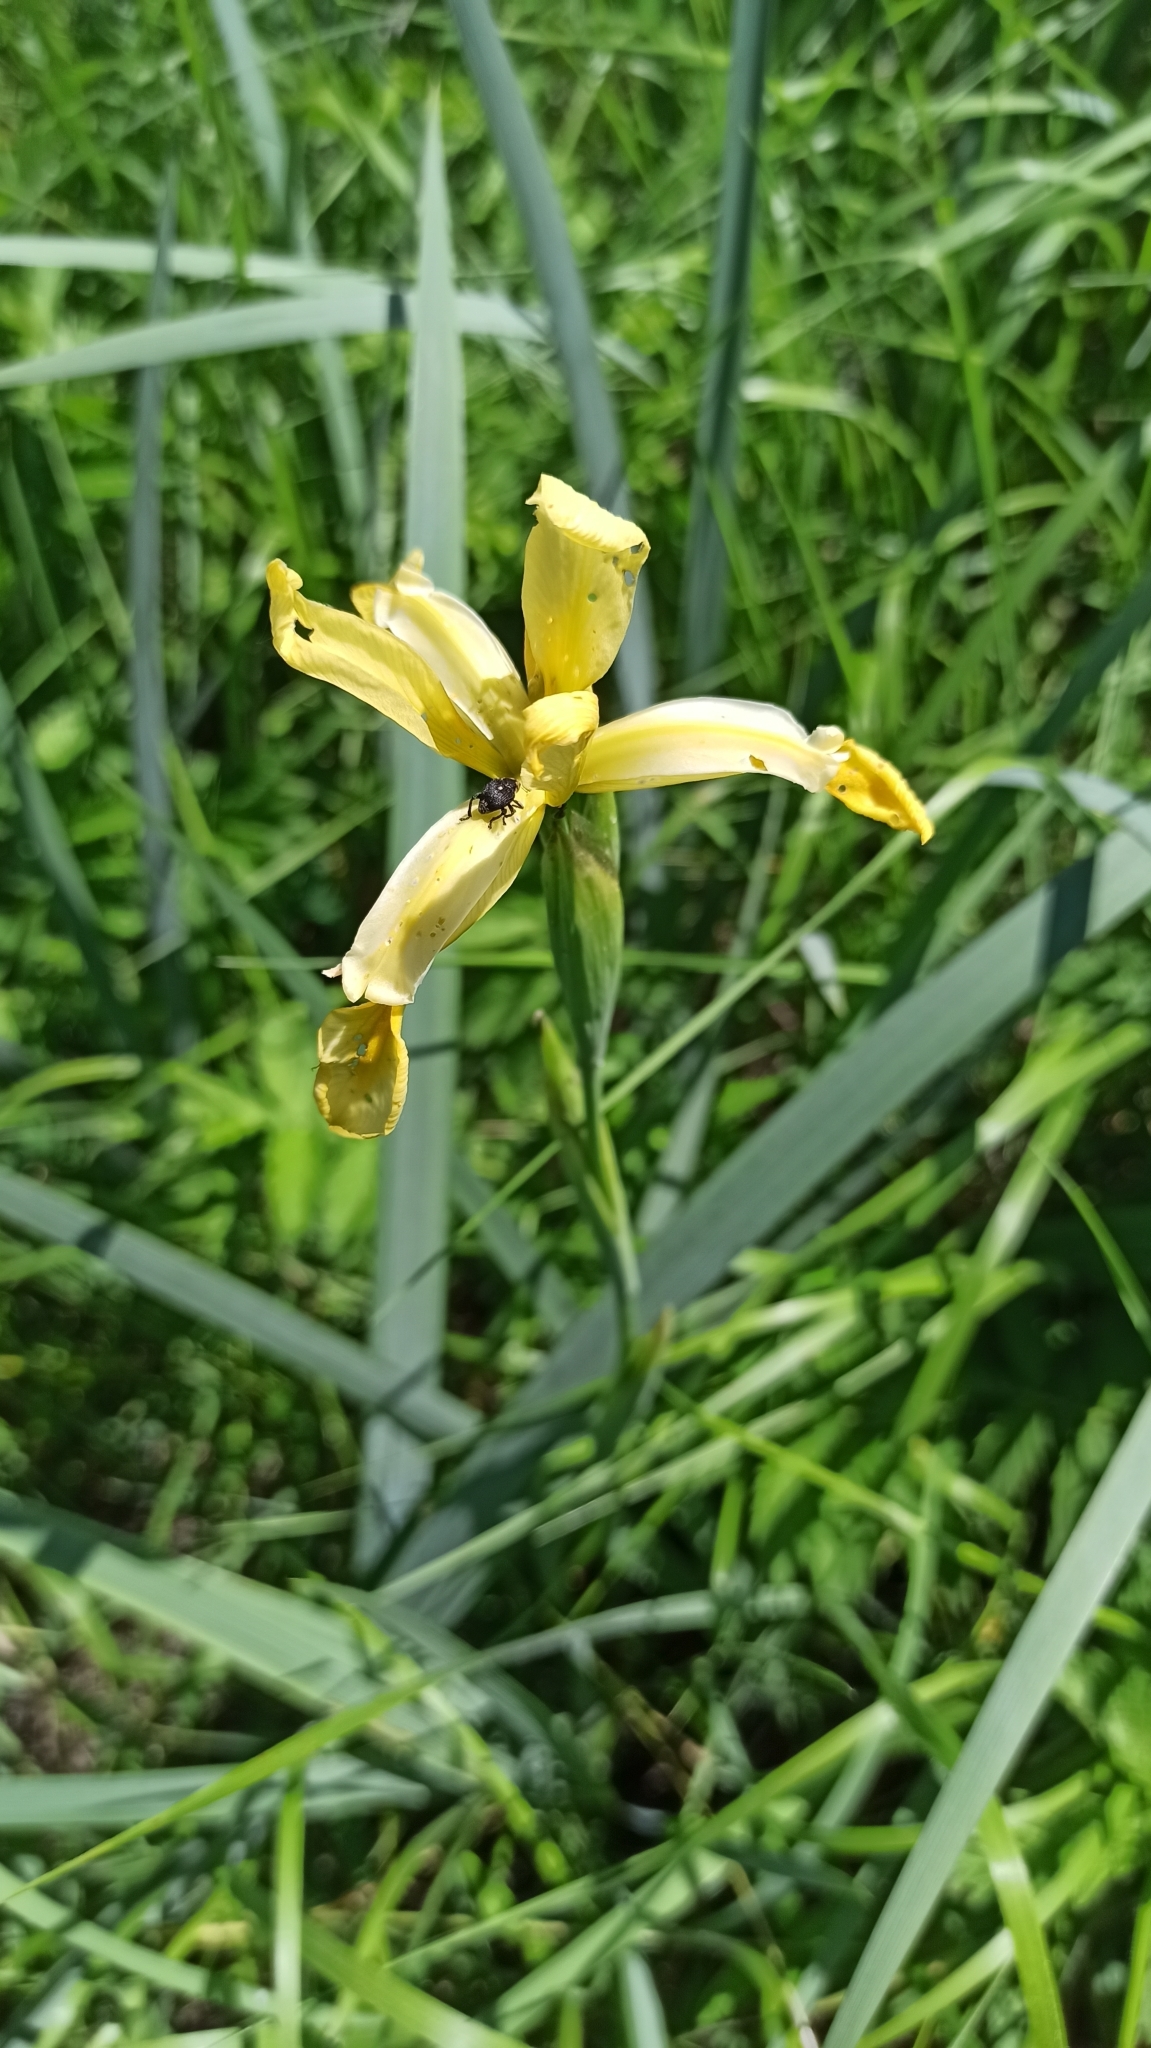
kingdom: Plantae
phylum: Tracheophyta
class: Liliopsida
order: Asparagales
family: Iridaceae
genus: Iris
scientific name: Iris halophila
